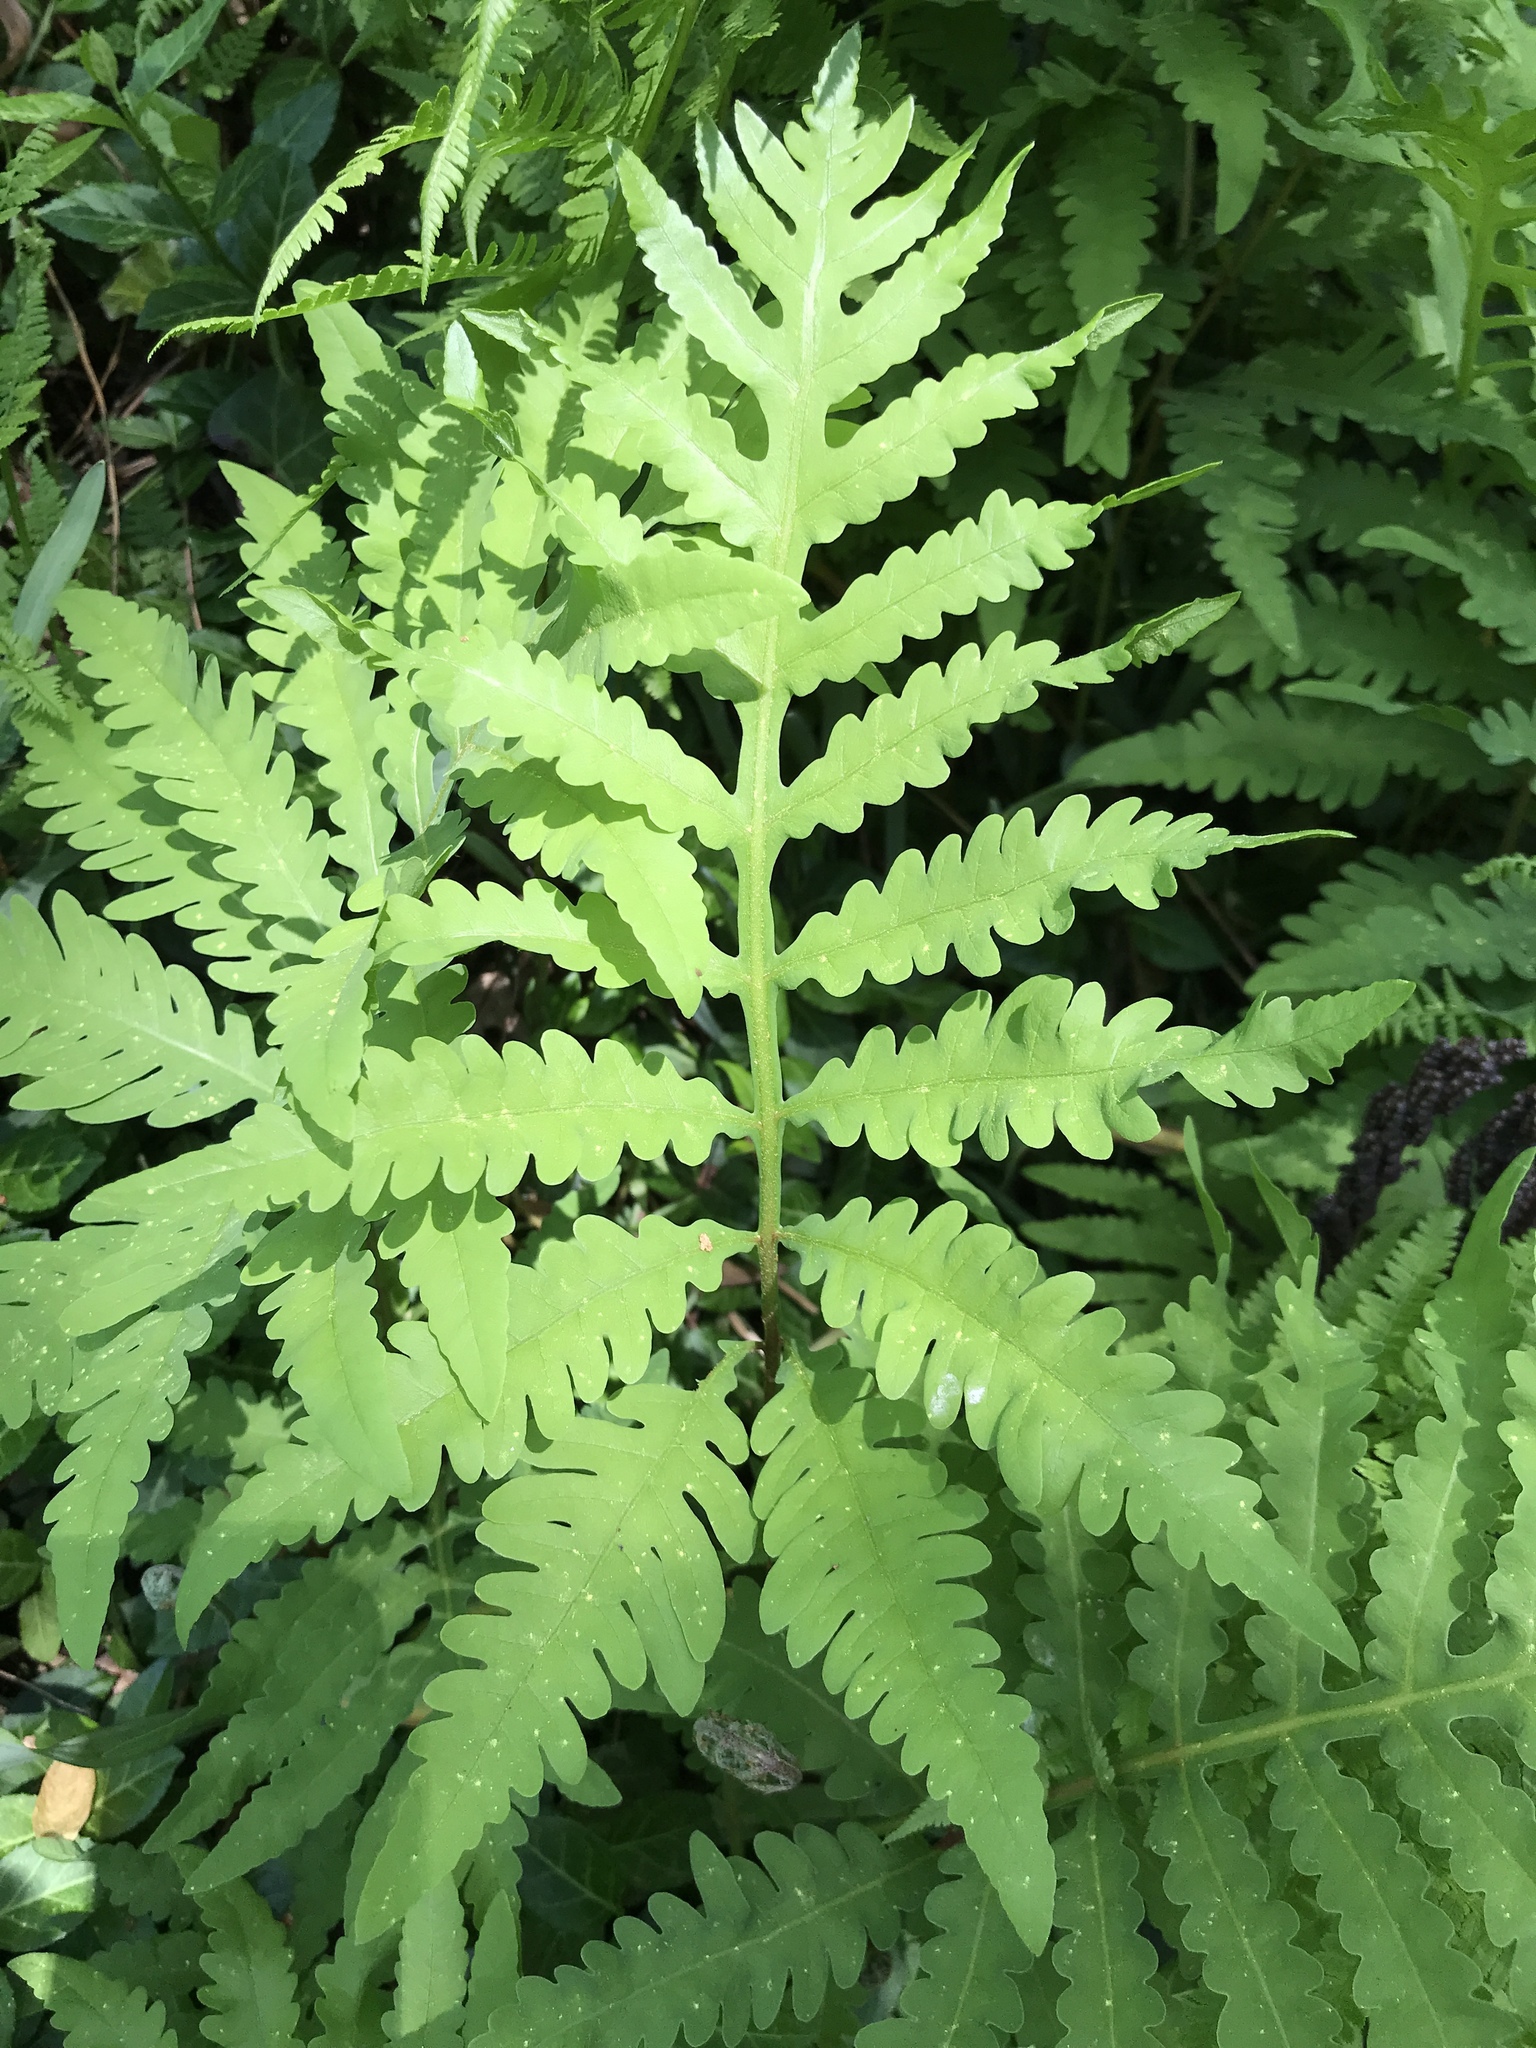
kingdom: Plantae
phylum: Tracheophyta
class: Polypodiopsida
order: Polypodiales
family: Onocleaceae
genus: Onoclea
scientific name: Onoclea sensibilis
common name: Sensitive fern
